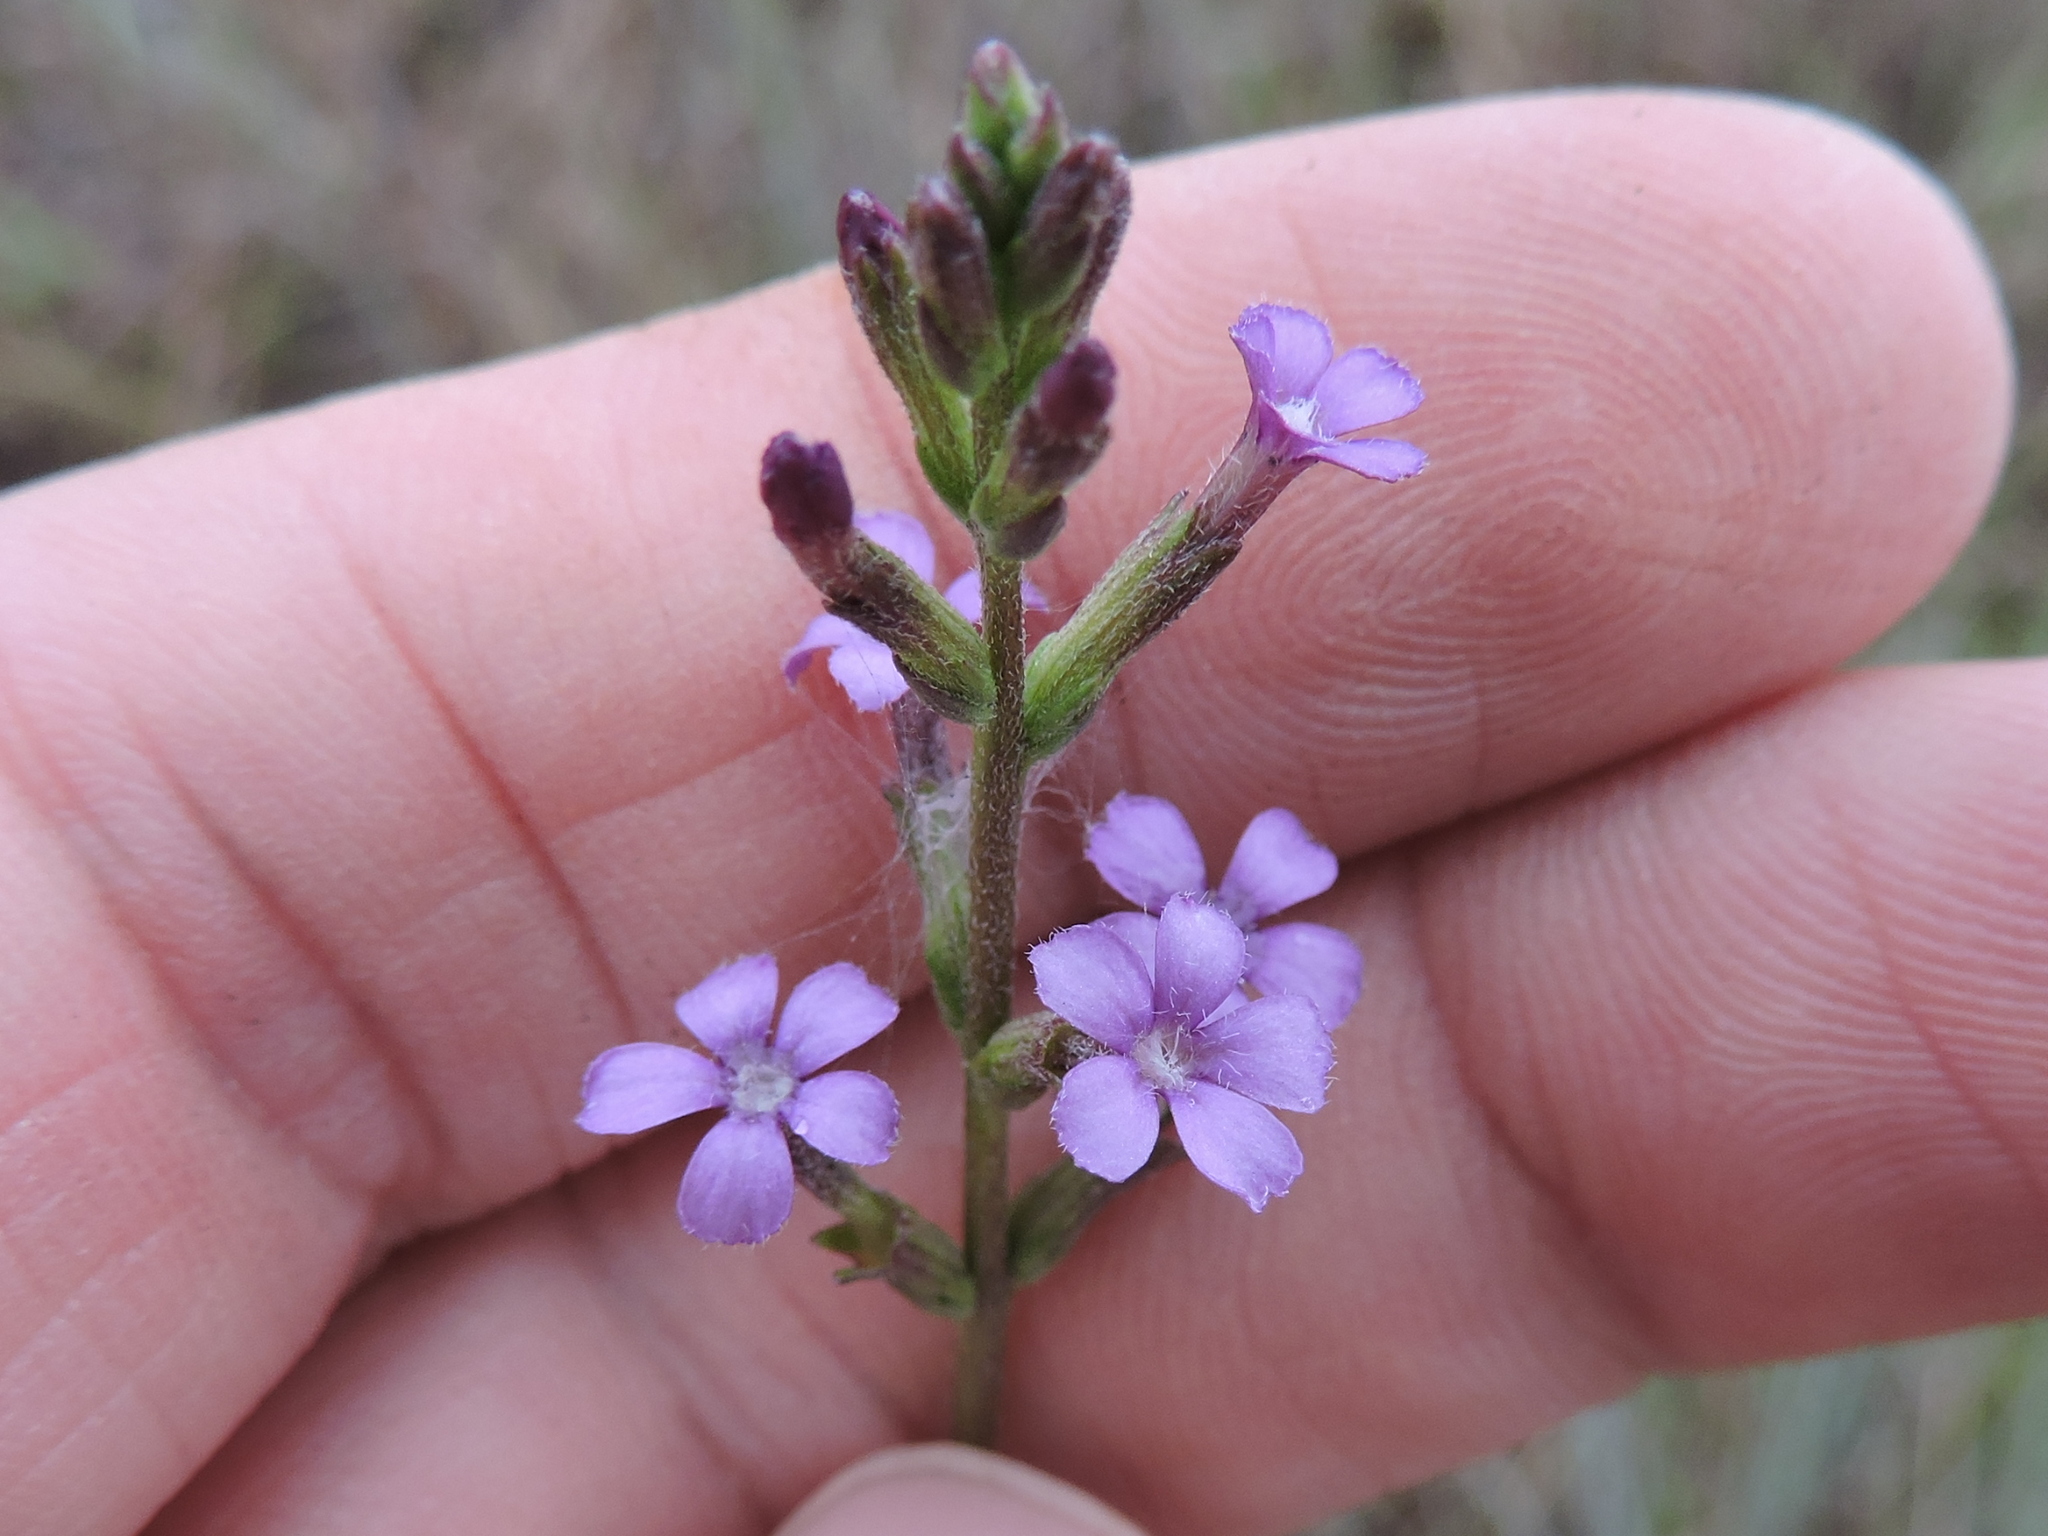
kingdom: Plantae
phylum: Tracheophyta
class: Magnoliopsida
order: Lamiales
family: Orobanchaceae
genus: Buchnera
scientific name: Buchnera floridana
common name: Florida bluehearts
